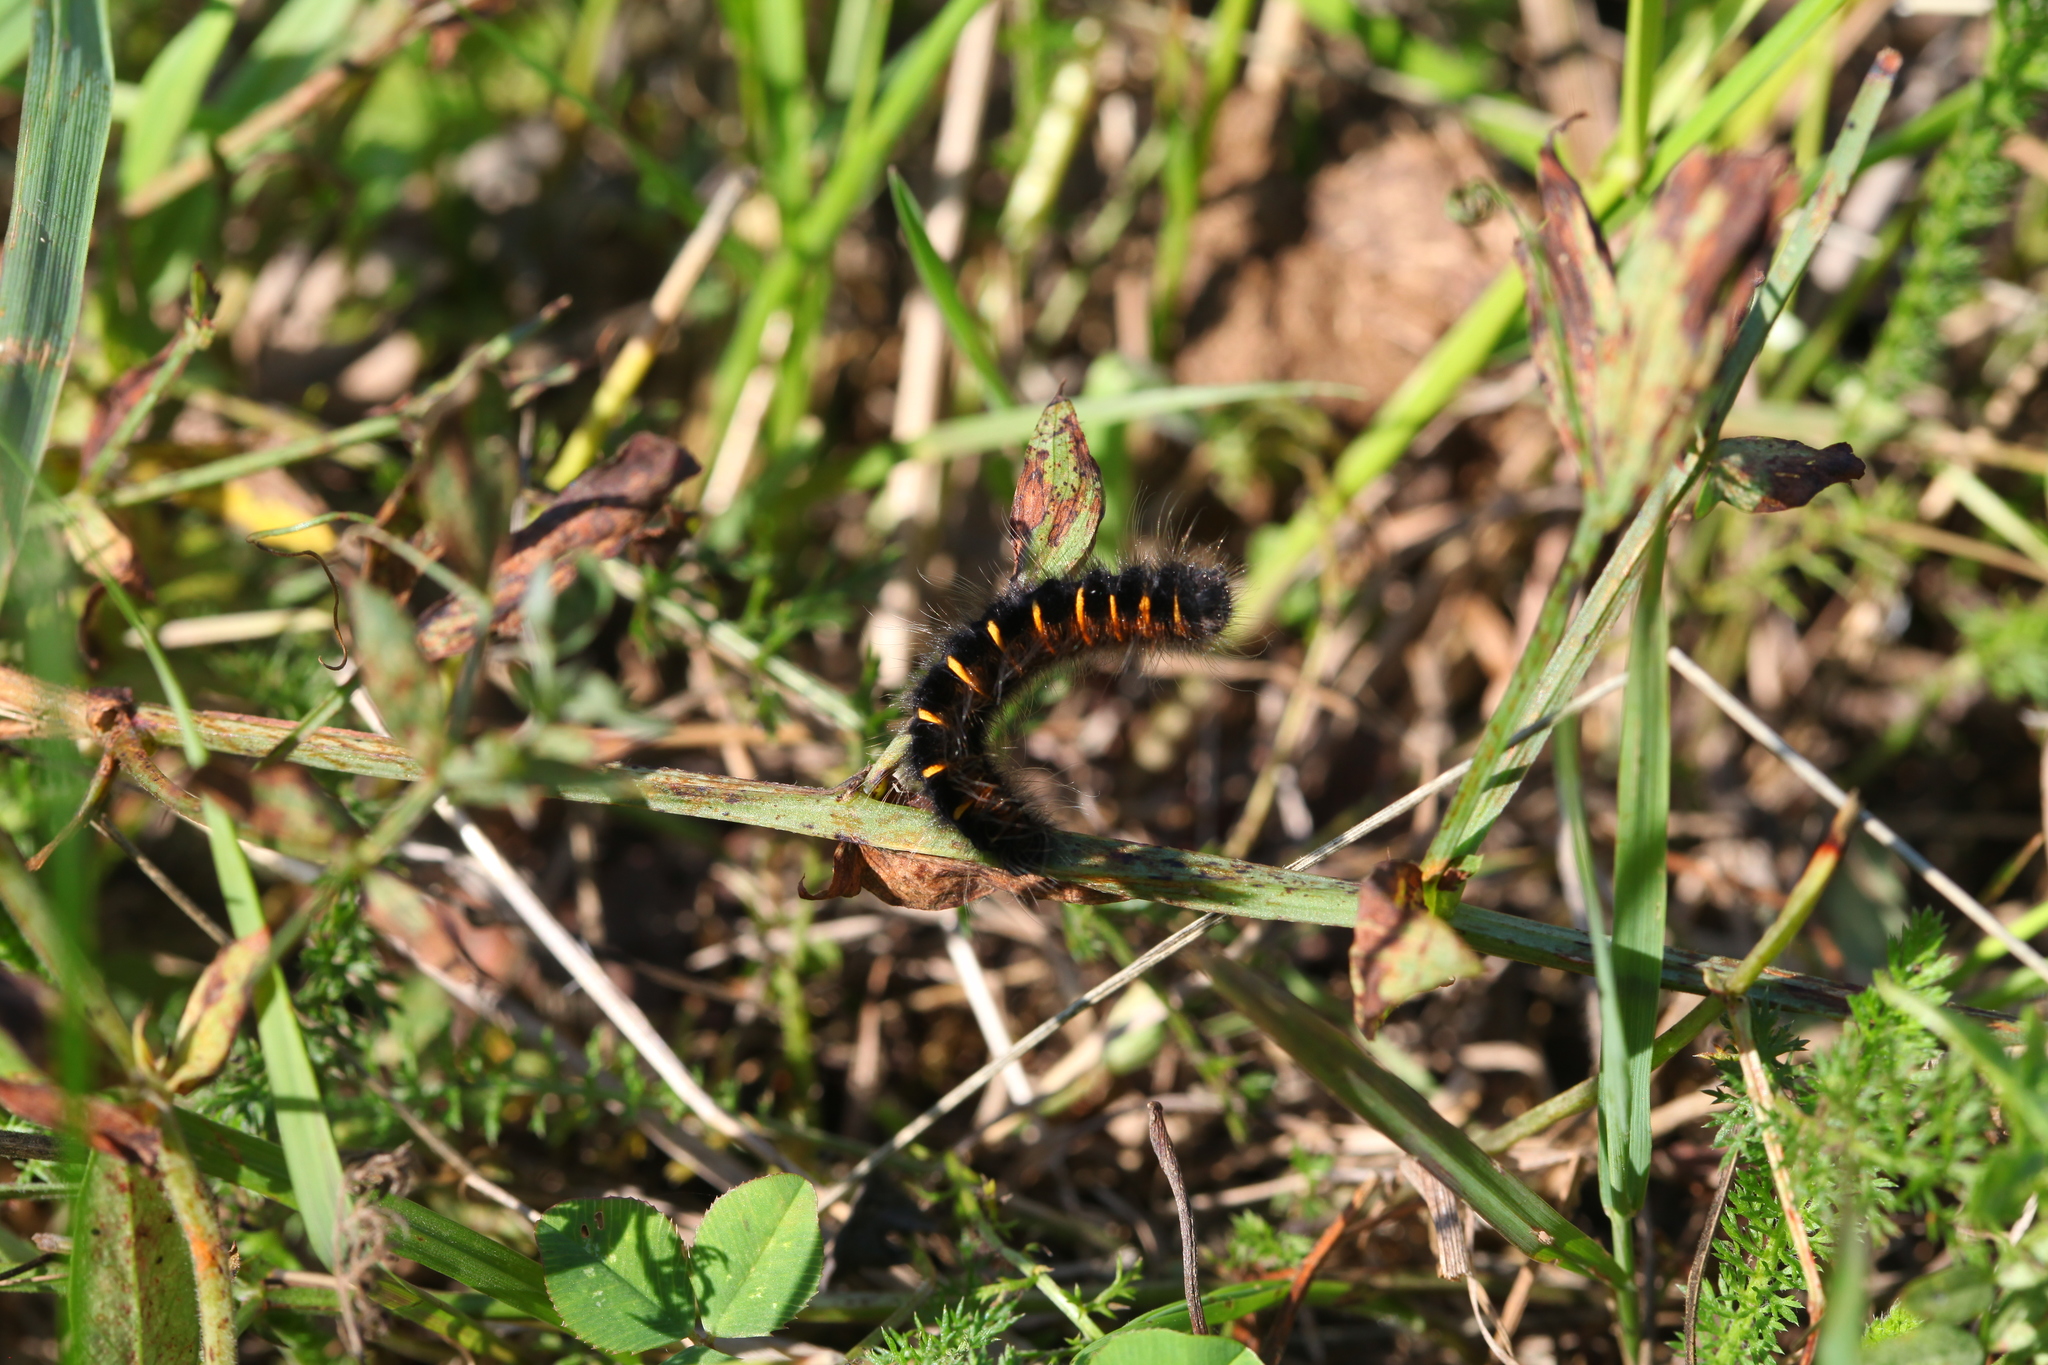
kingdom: Animalia
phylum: Arthropoda
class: Insecta
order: Lepidoptera
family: Lasiocampidae
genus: Macrothylacia
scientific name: Macrothylacia rubi
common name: Fox moth
